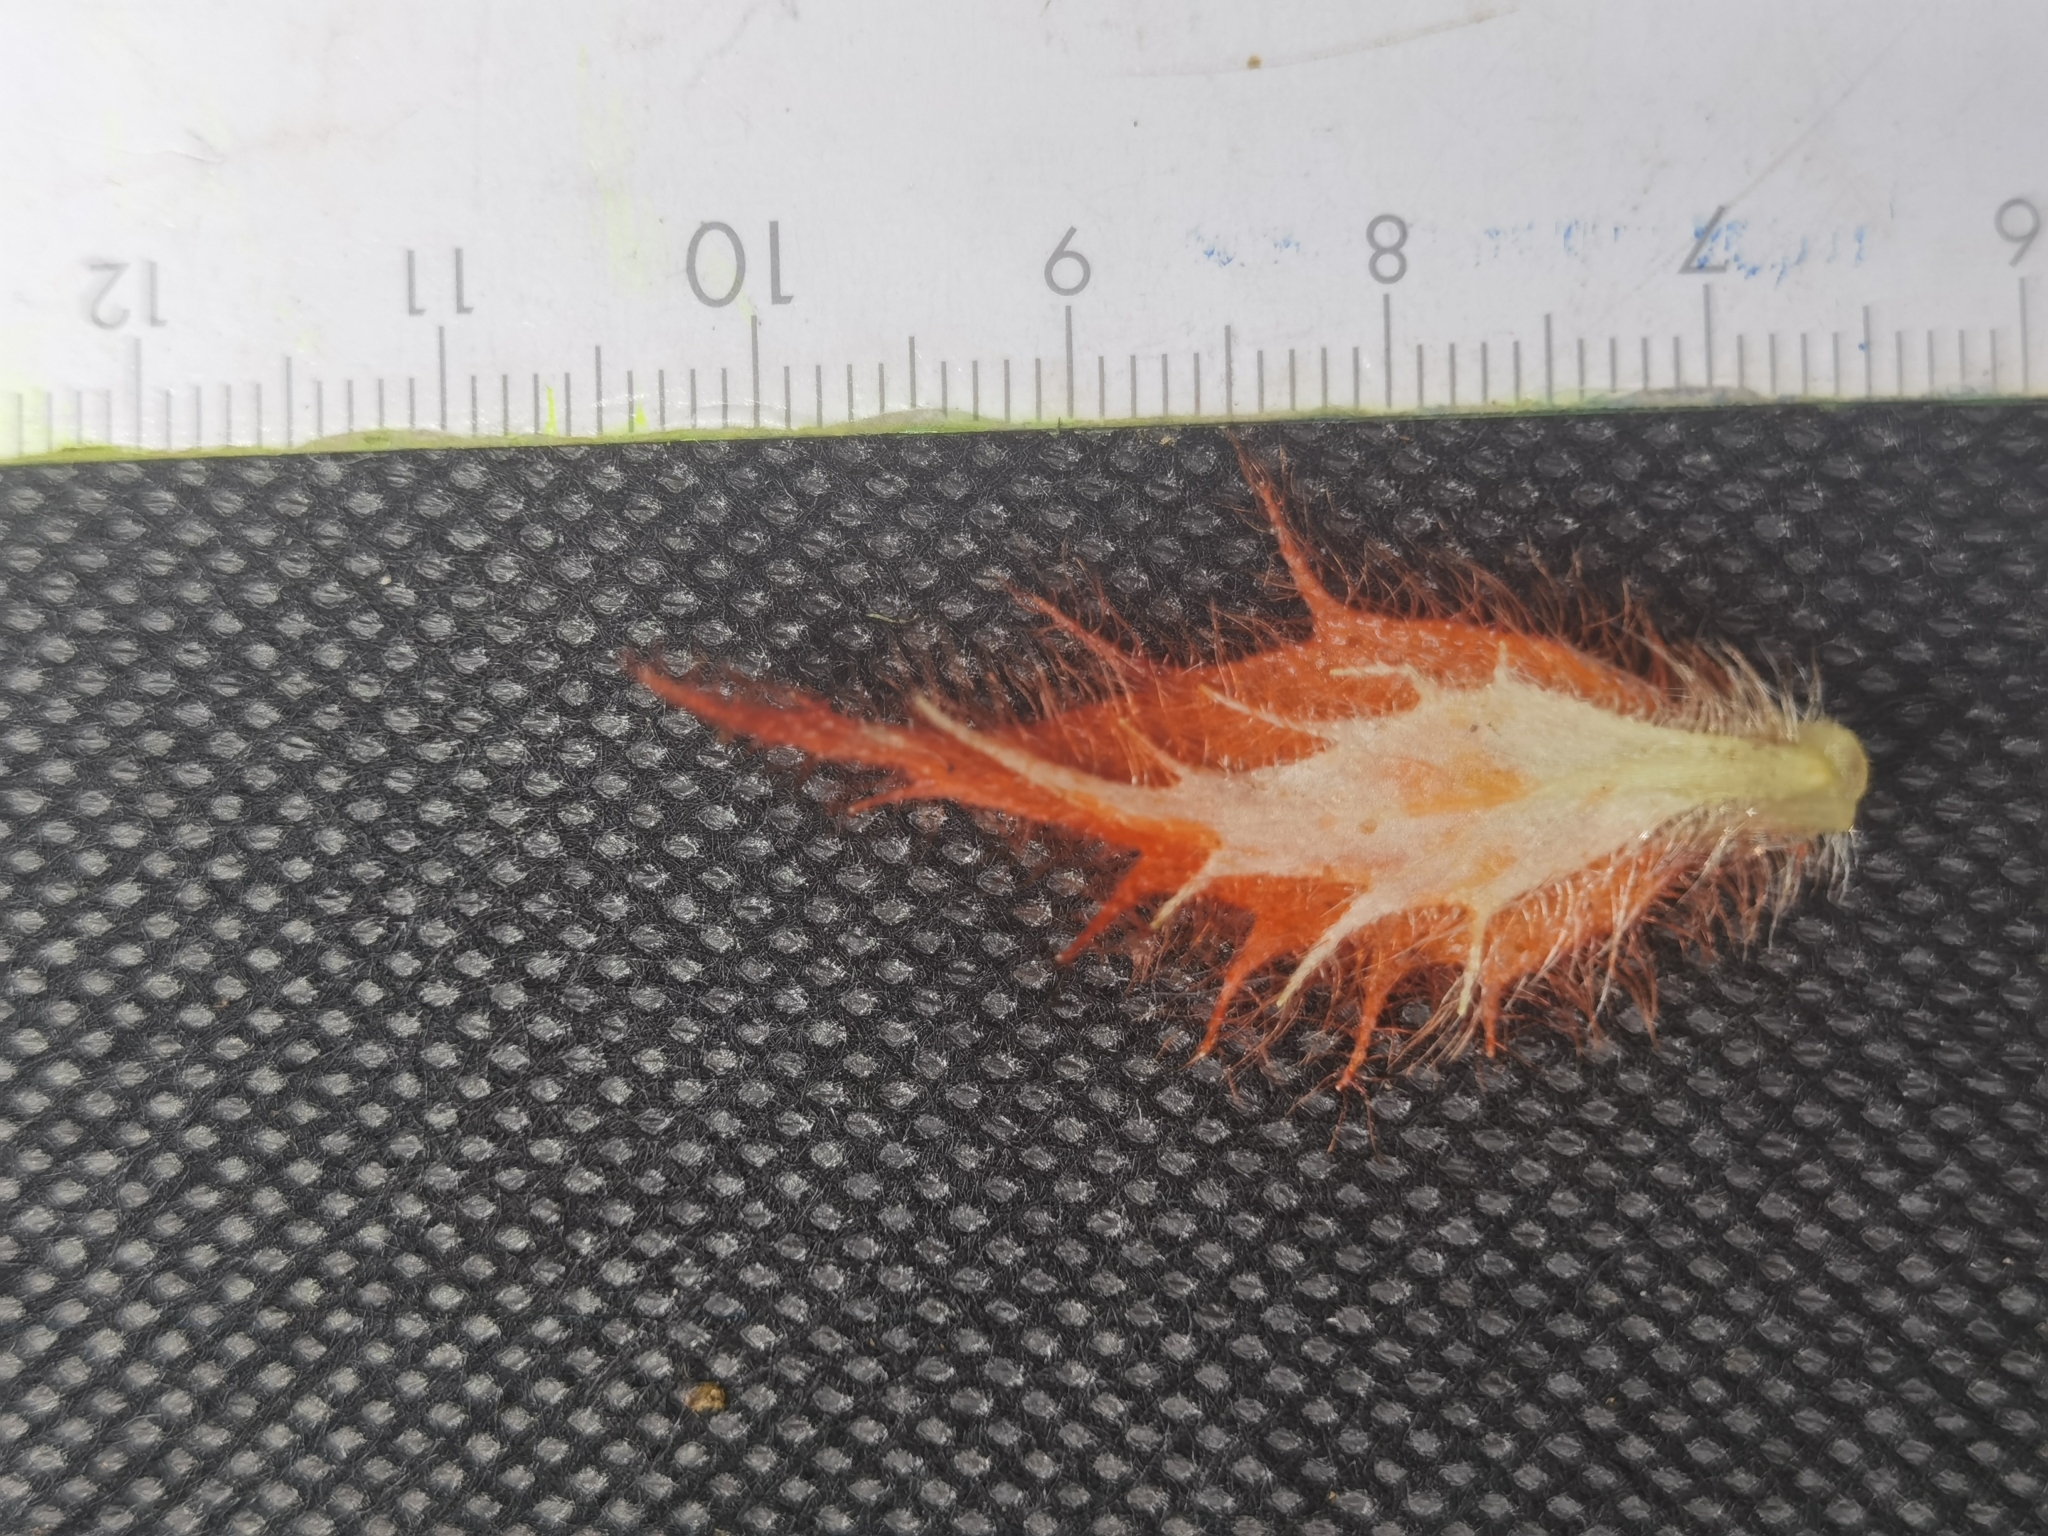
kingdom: Plantae
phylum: Tracheophyta
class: Magnoliopsida
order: Lamiales
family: Gesneriaceae
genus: Columnea
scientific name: Columnea purpurata
